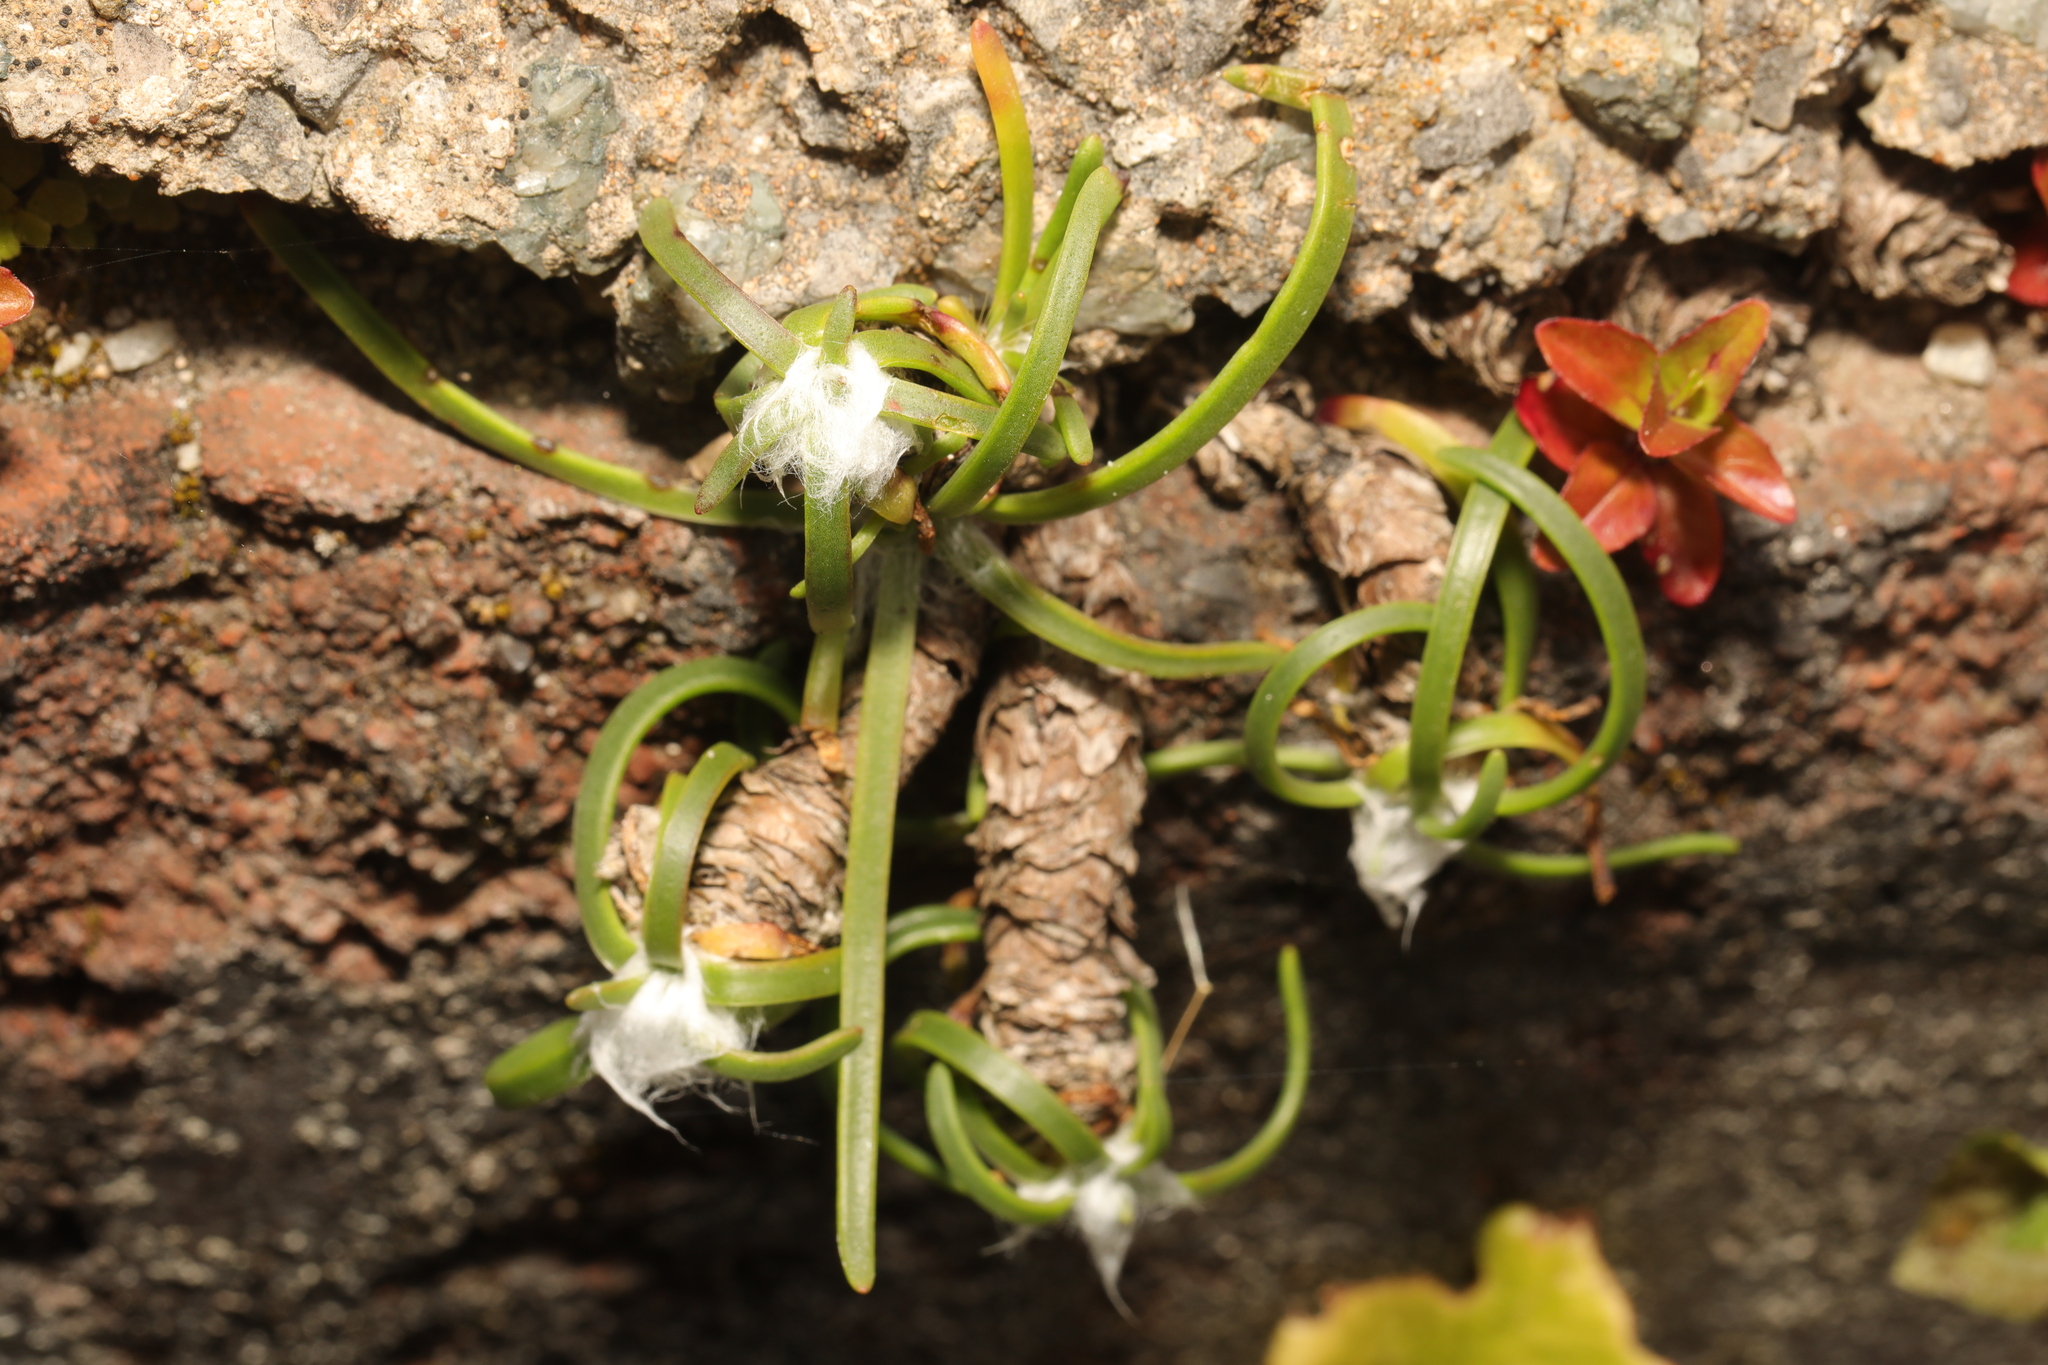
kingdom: Plantae
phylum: Tracheophyta
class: Magnoliopsida
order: Lamiales
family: Plantaginaceae
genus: Plantago
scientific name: Plantago maritima
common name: Sea plantain
